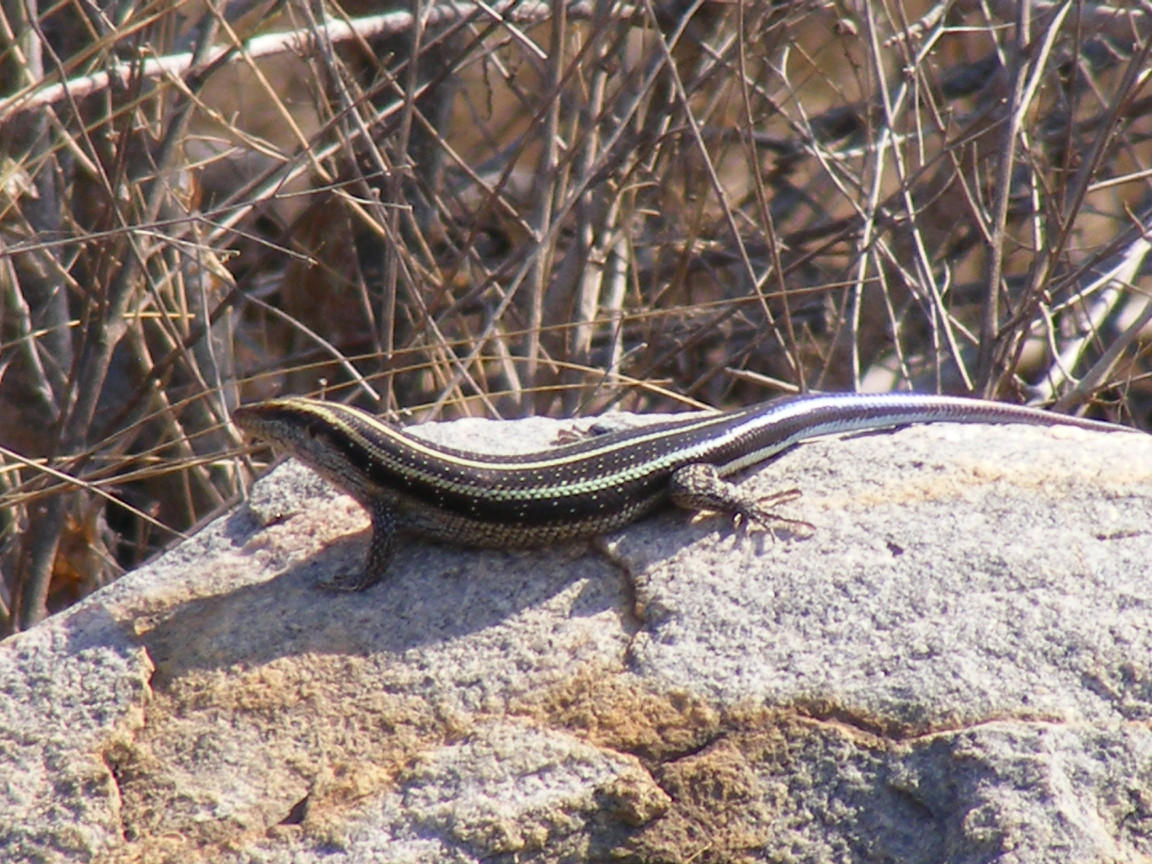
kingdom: Animalia
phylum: Chordata
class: Squamata
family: Scincidae
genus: Trachylepis
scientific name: Trachylepis margaritifera
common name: Rainbow skink
